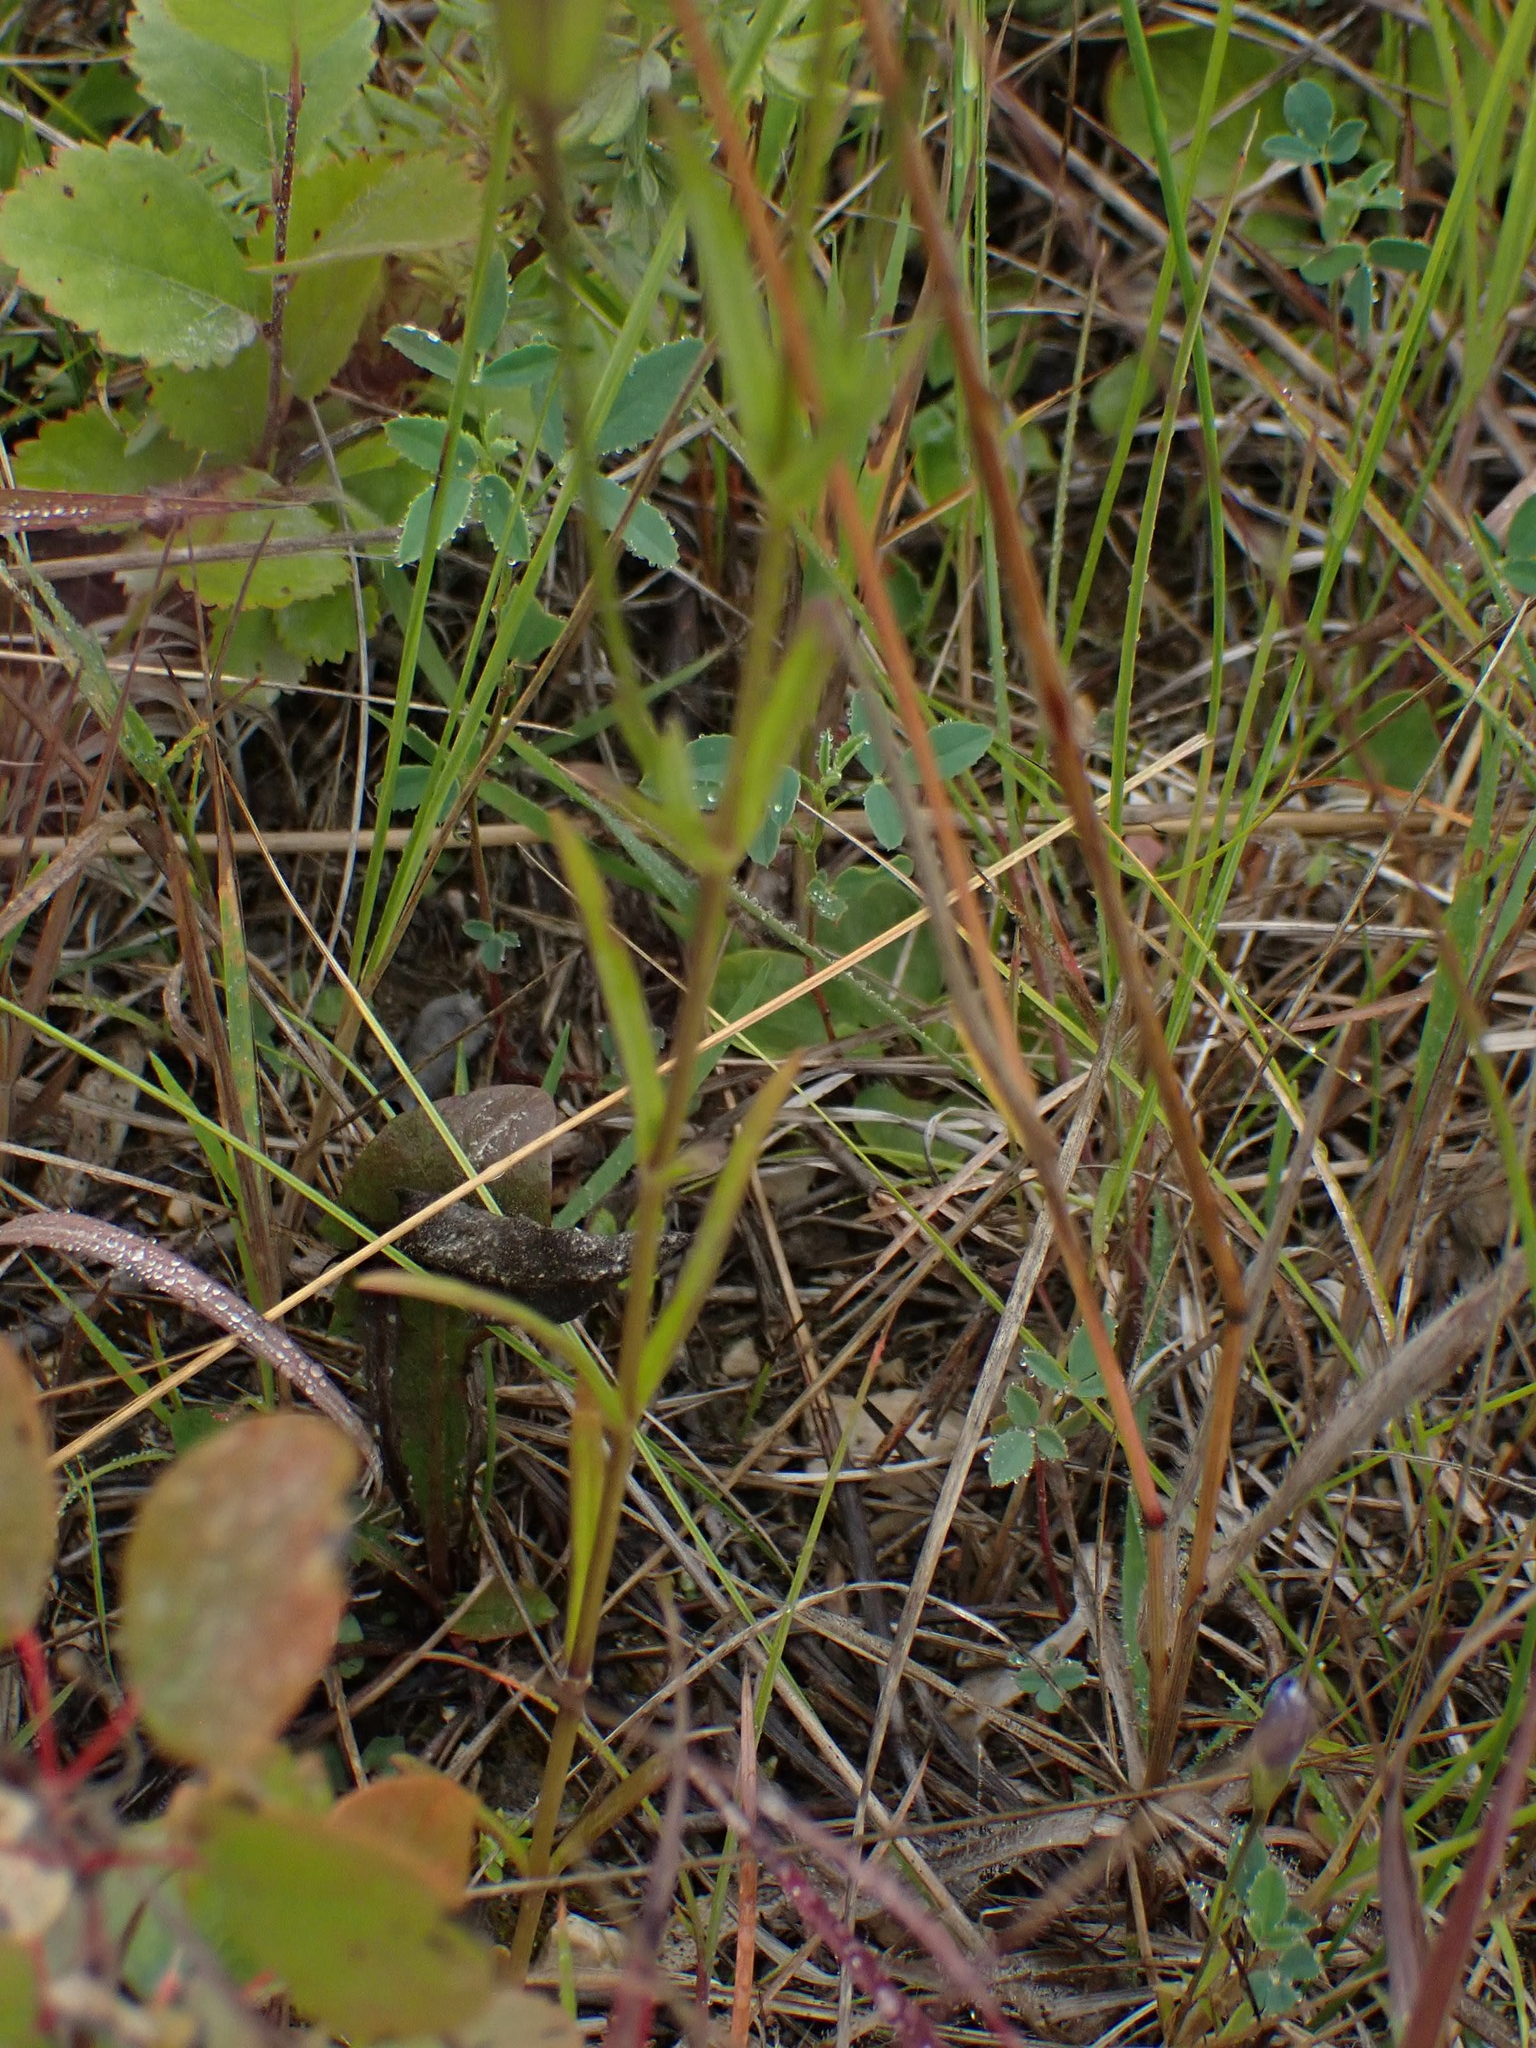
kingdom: Plantae
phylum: Tracheophyta
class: Magnoliopsida
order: Gentianales
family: Gentianaceae
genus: Gentianopsis
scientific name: Gentianopsis virgata
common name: Lesser fringed-gentian
